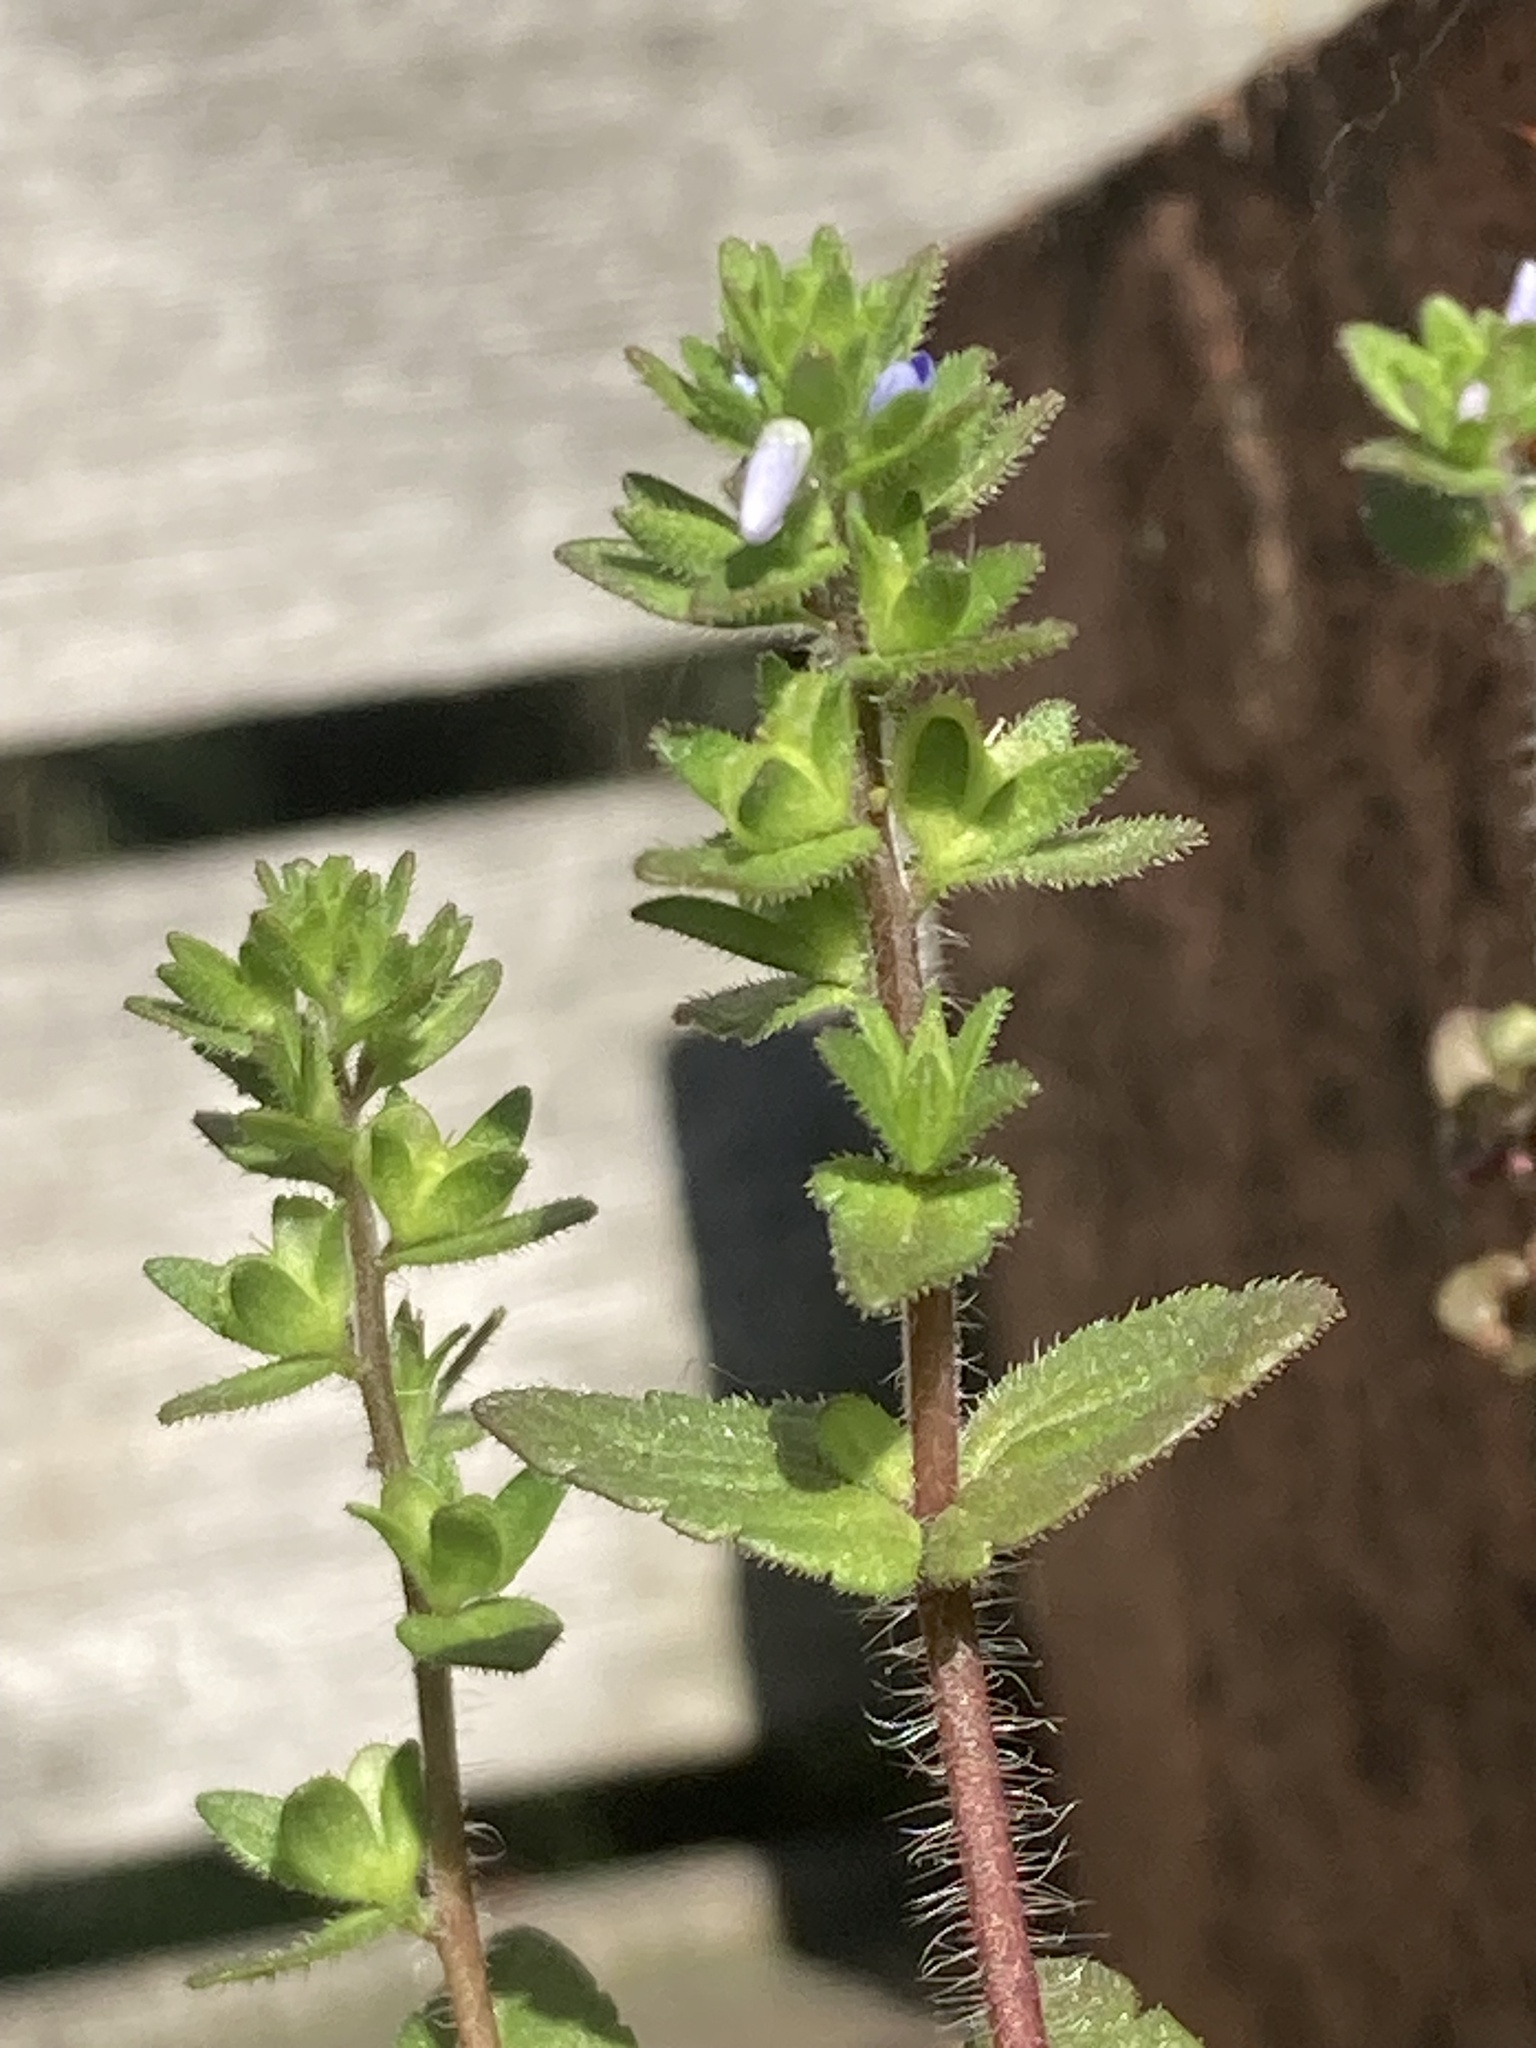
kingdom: Plantae
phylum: Tracheophyta
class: Magnoliopsida
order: Lamiales
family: Plantaginaceae
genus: Veronica
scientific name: Veronica arvensis
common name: Corn speedwell
